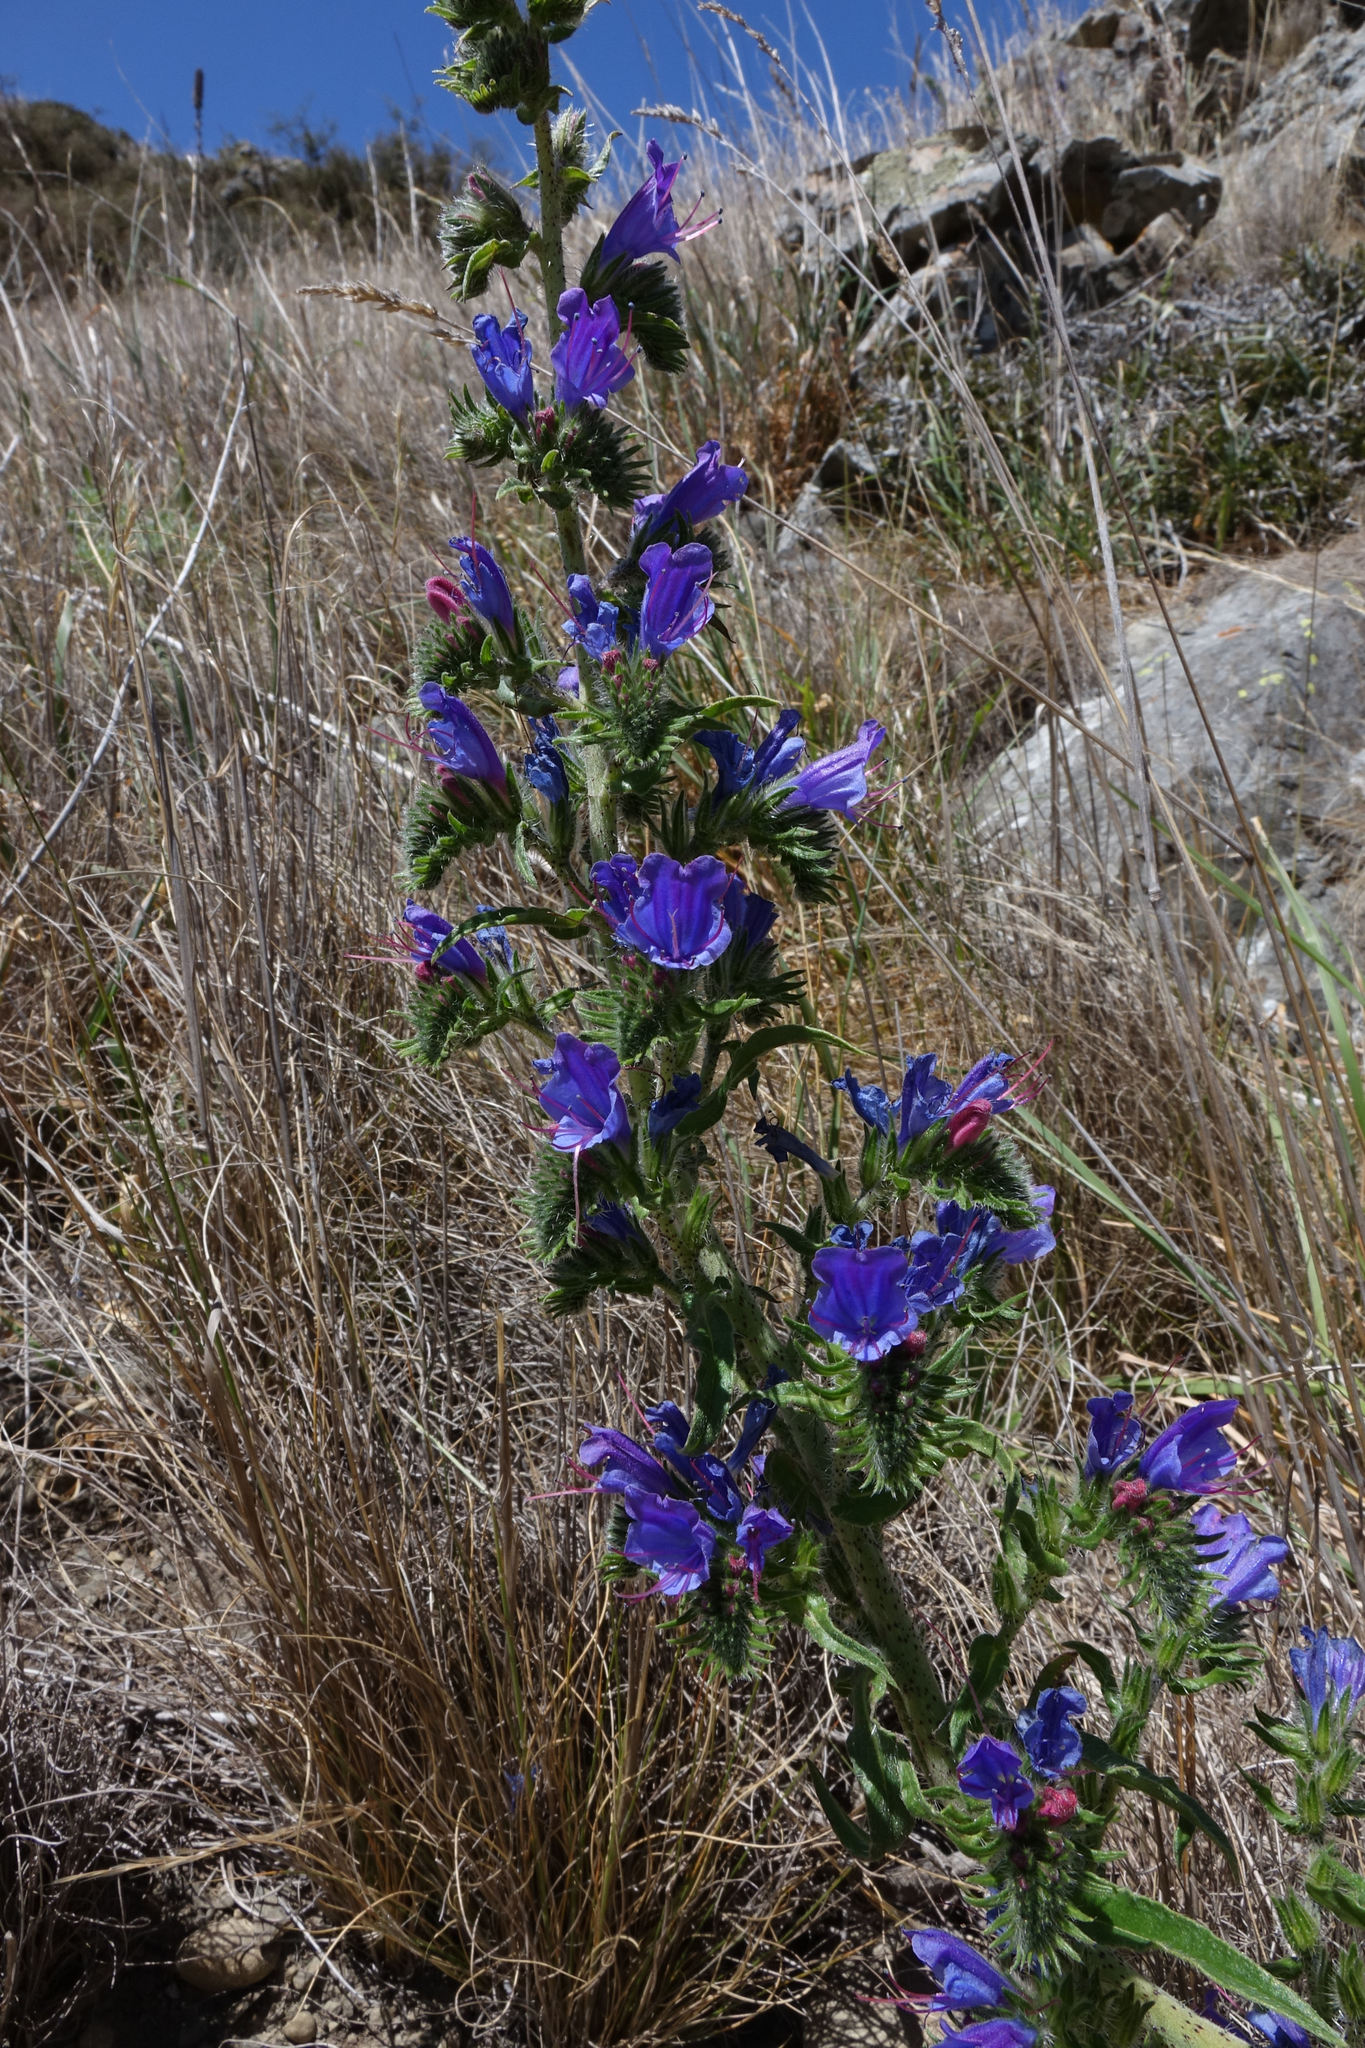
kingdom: Plantae
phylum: Tracheophyta
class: Magnoliopsida
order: Boraginales
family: Boraginaceae
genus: Echium
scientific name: Echium vulgare
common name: Common viper's bugloss
